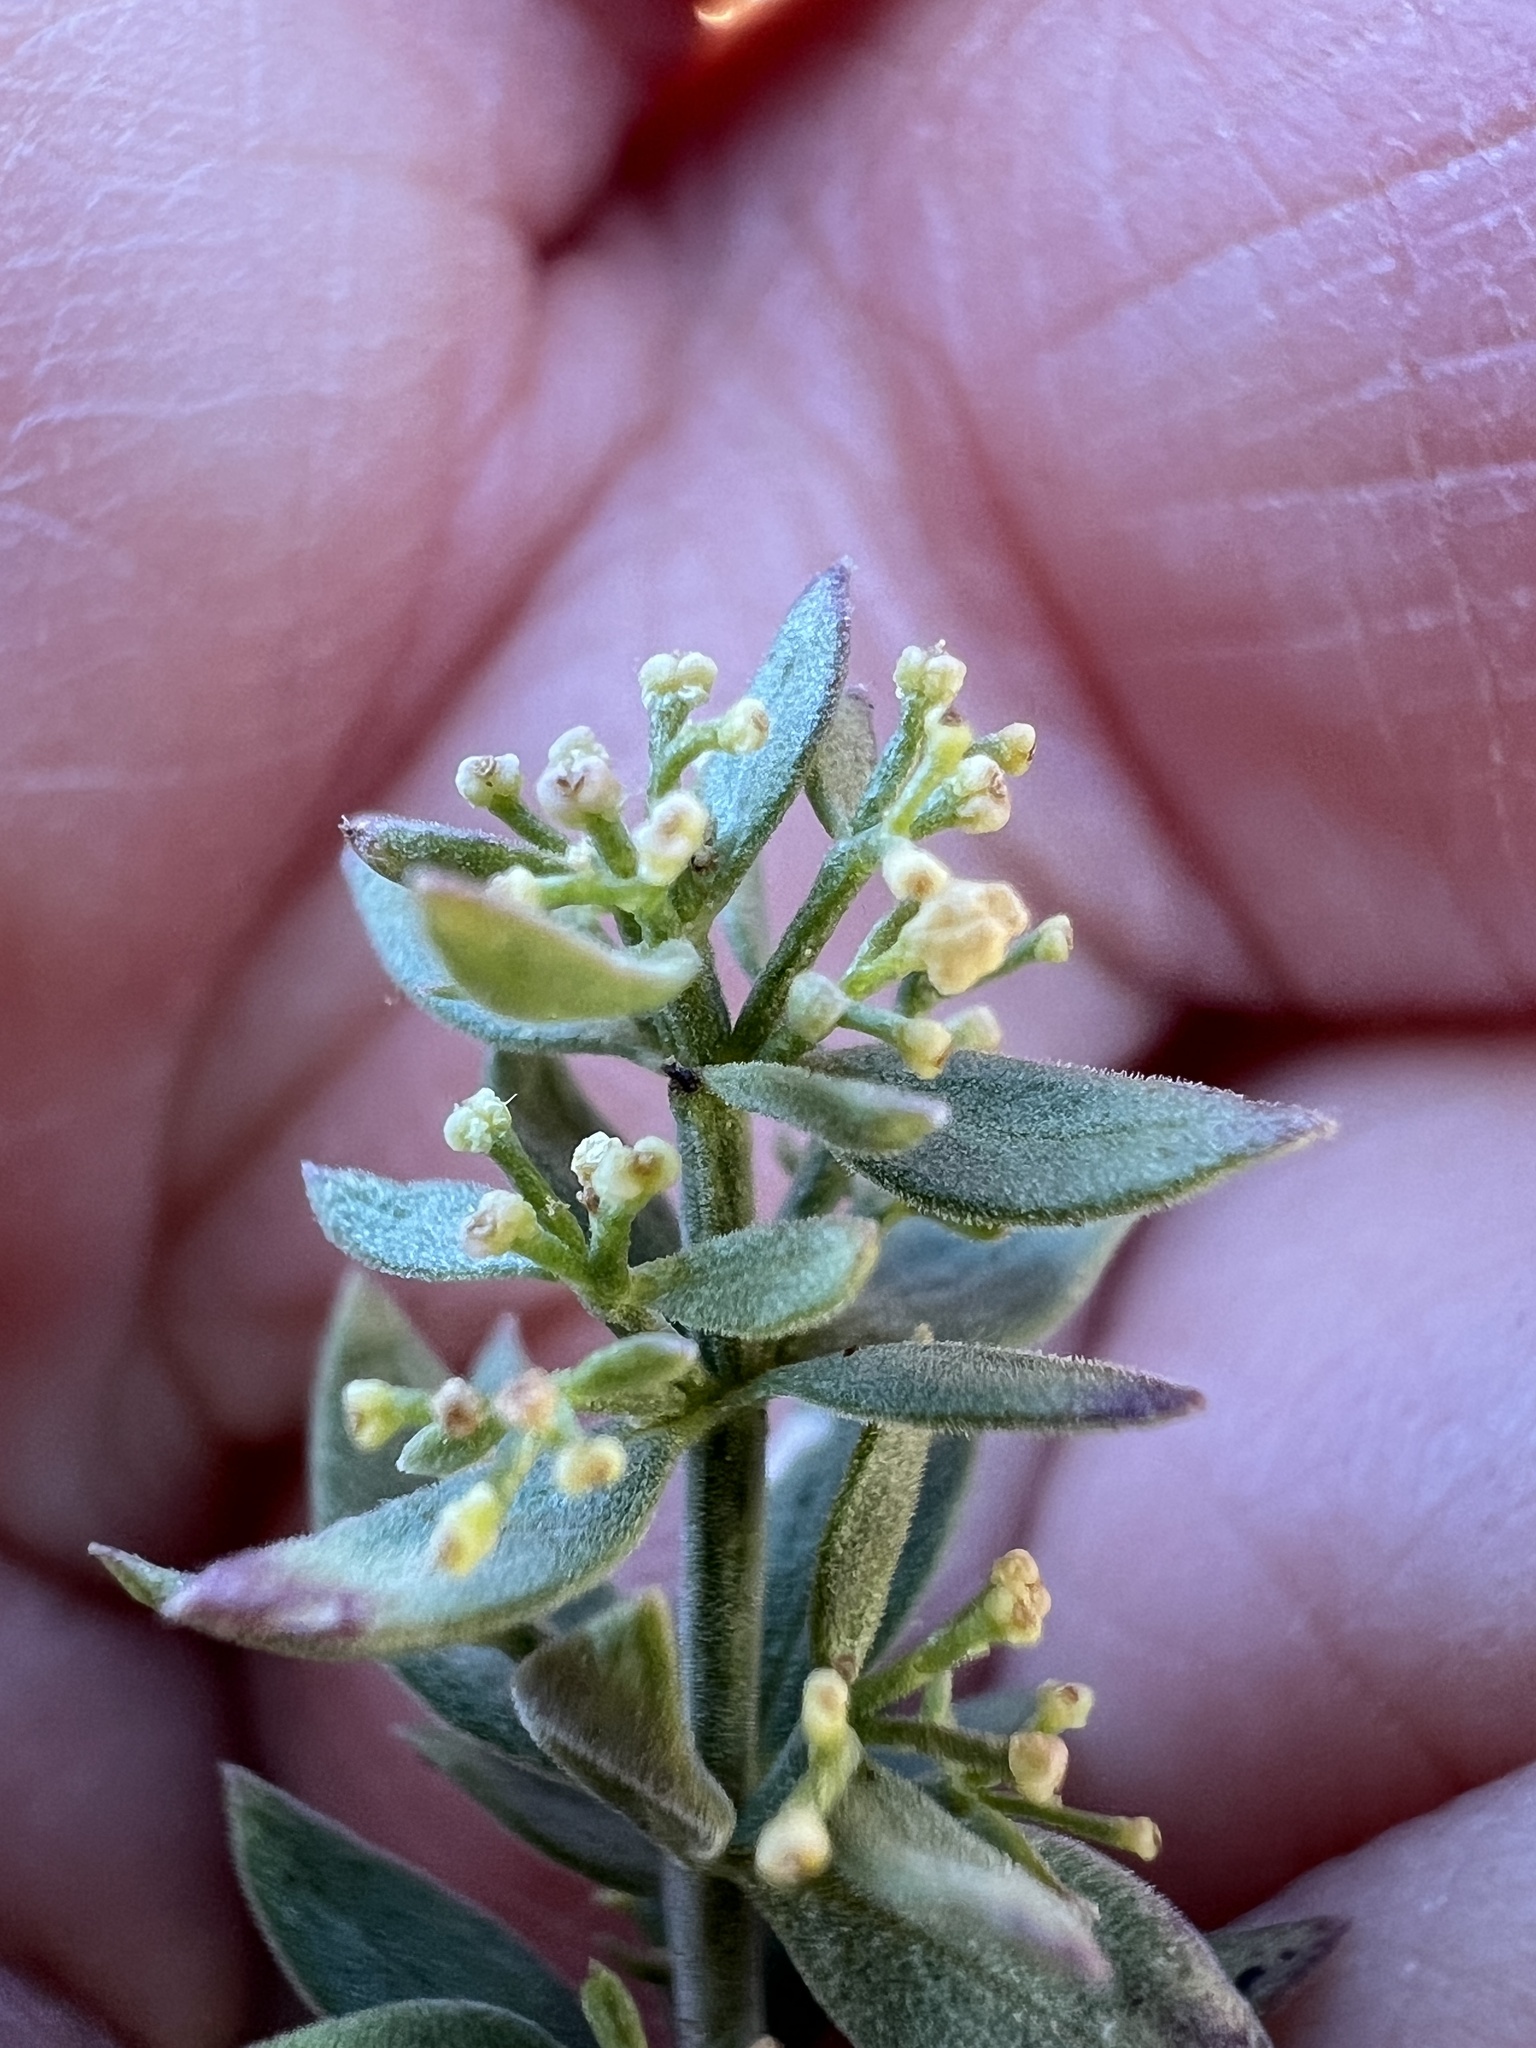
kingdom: Plantae
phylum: Tracheophyta
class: Magnoliopsida
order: Gentianales
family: Rubiaceae
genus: Galium
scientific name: Galium serpenticum
